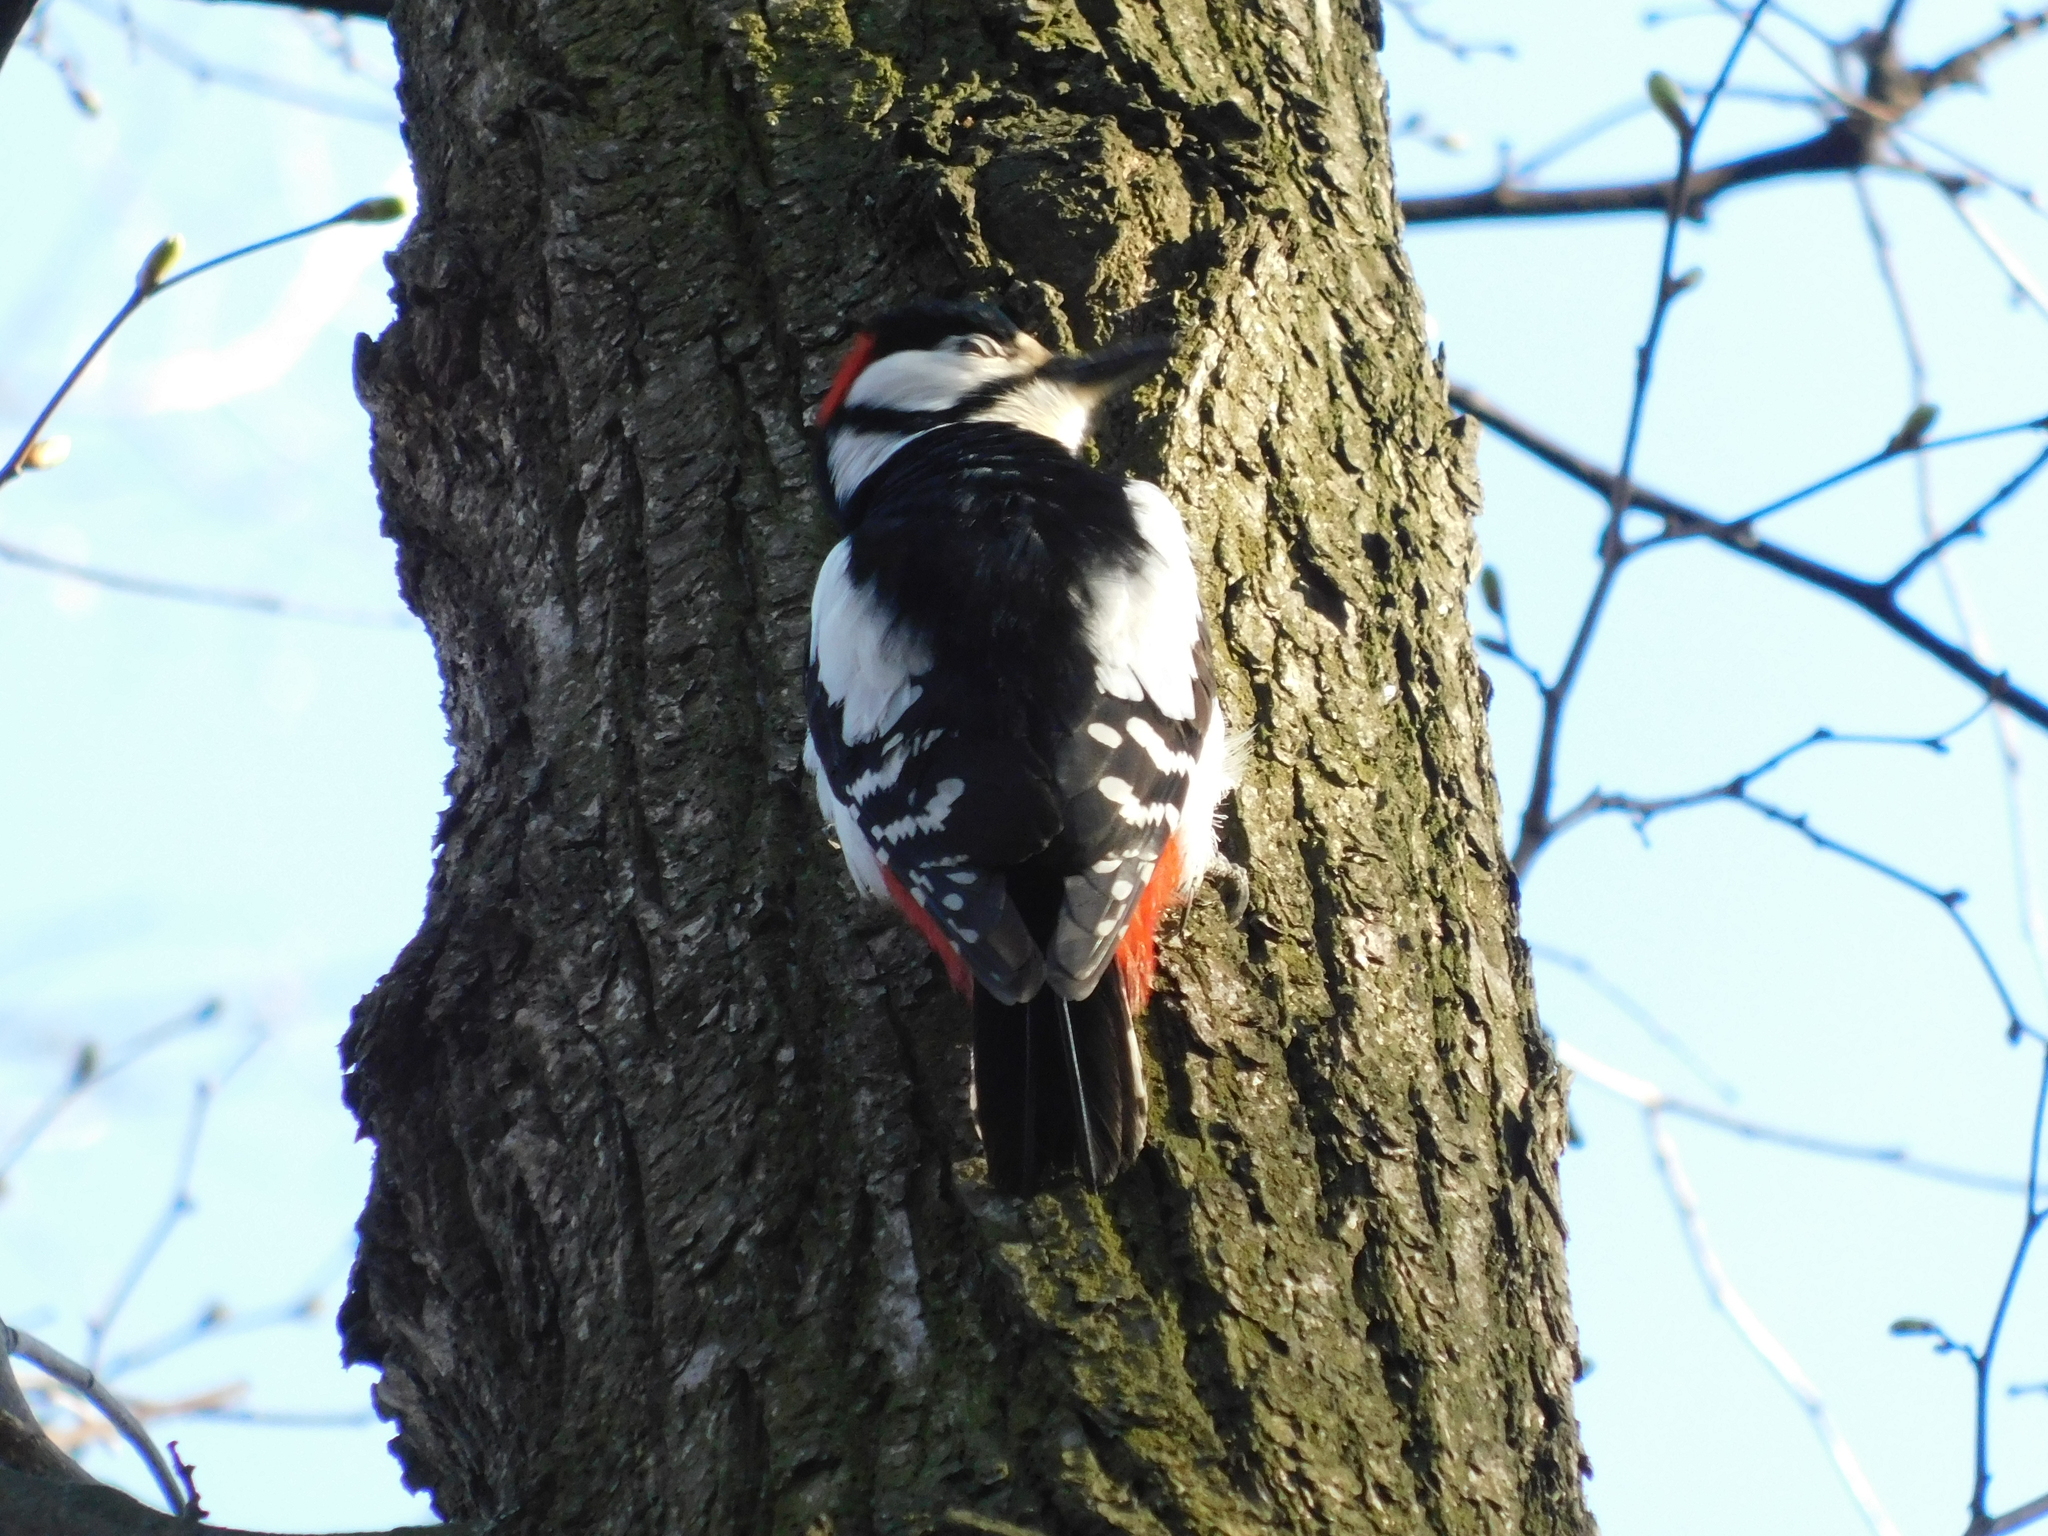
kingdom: Animalia
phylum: Chordata
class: Aves
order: Piciformes
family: Picidae
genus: Dendrocopos
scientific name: Dendrocopos major
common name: Great spotted woodpecker
